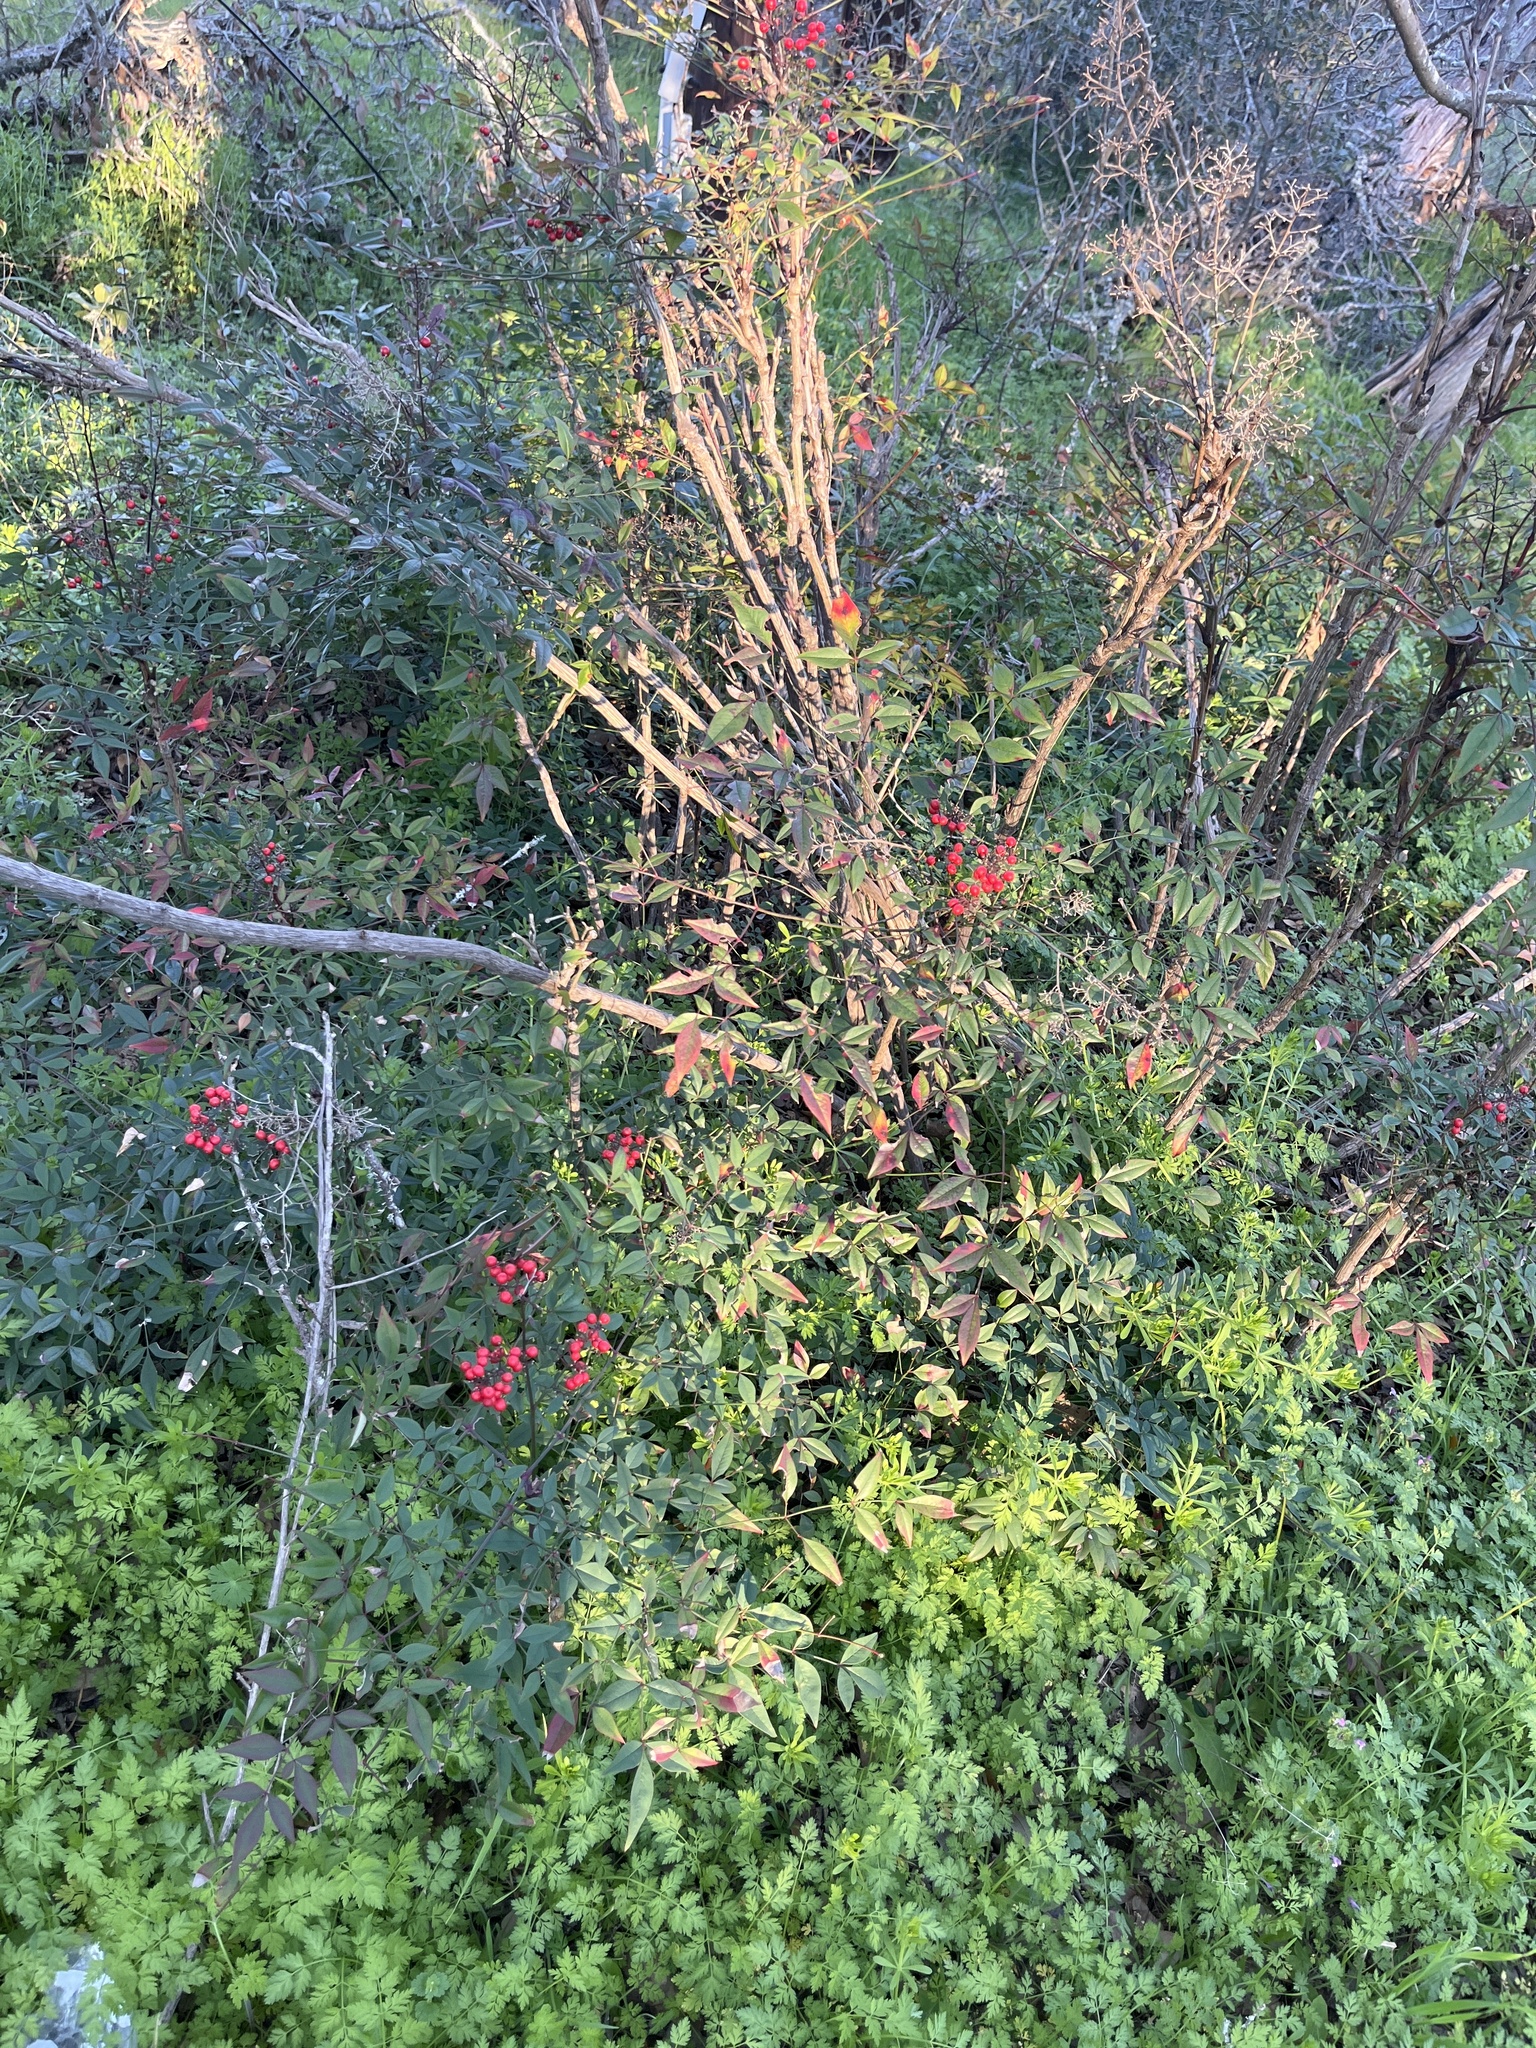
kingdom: Plantae
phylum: Tracheophyta
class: Magnoliopsida
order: Ranunculales
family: Berberidaceae
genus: Nandina
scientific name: Nandina domestica
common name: Sacred bamboo
